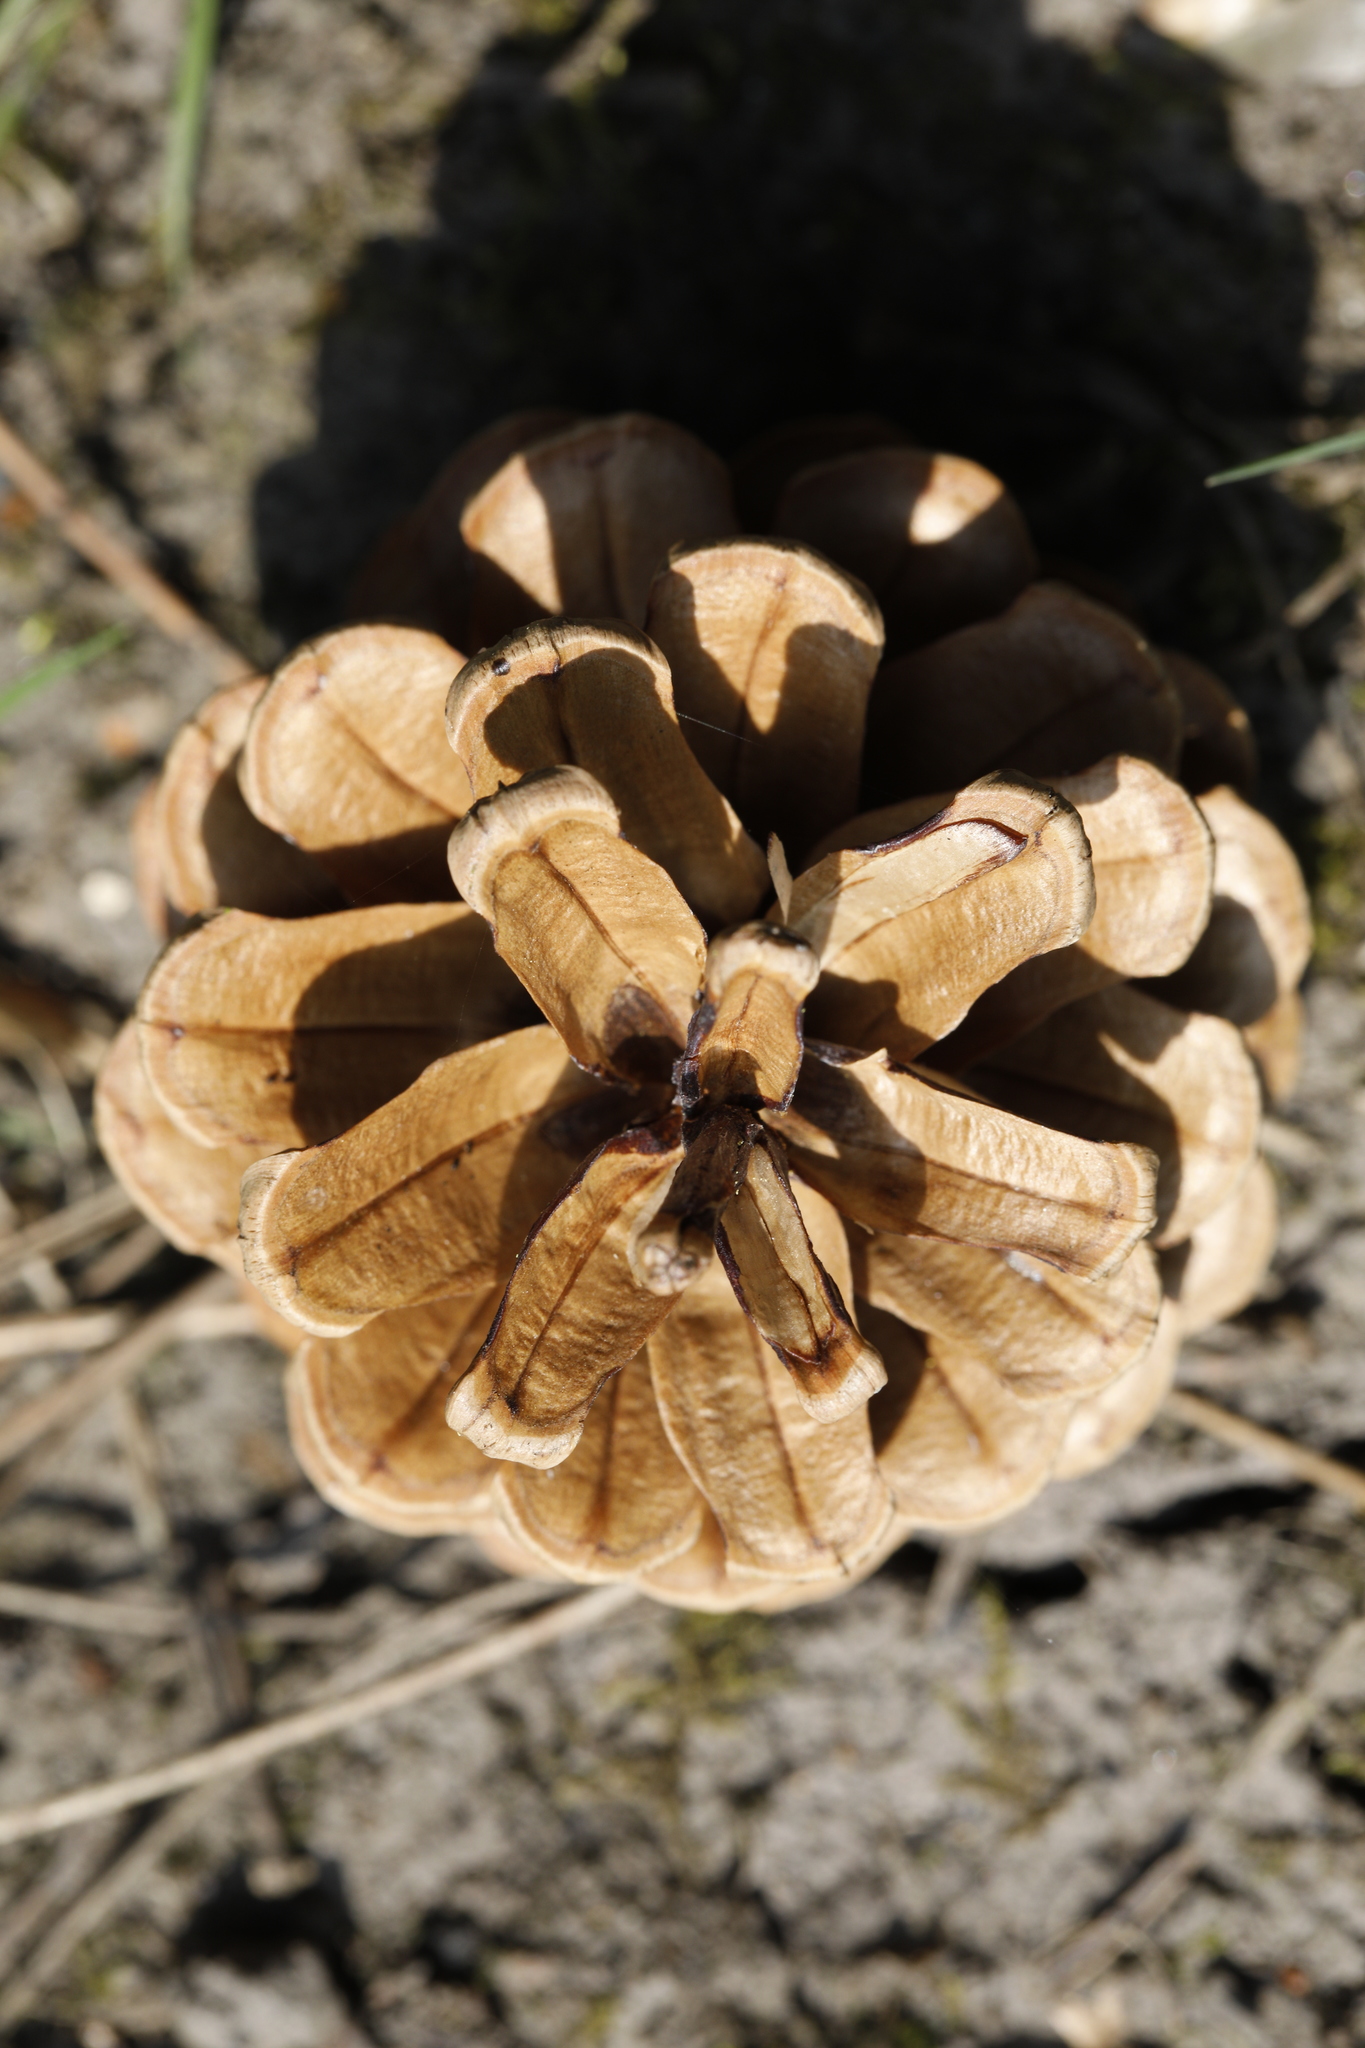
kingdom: Plantae
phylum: Tracheophyta
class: Pinopsida
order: Pinales
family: Pinaceae
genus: Pinus
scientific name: Pinus sylvestris
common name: Scots pine
